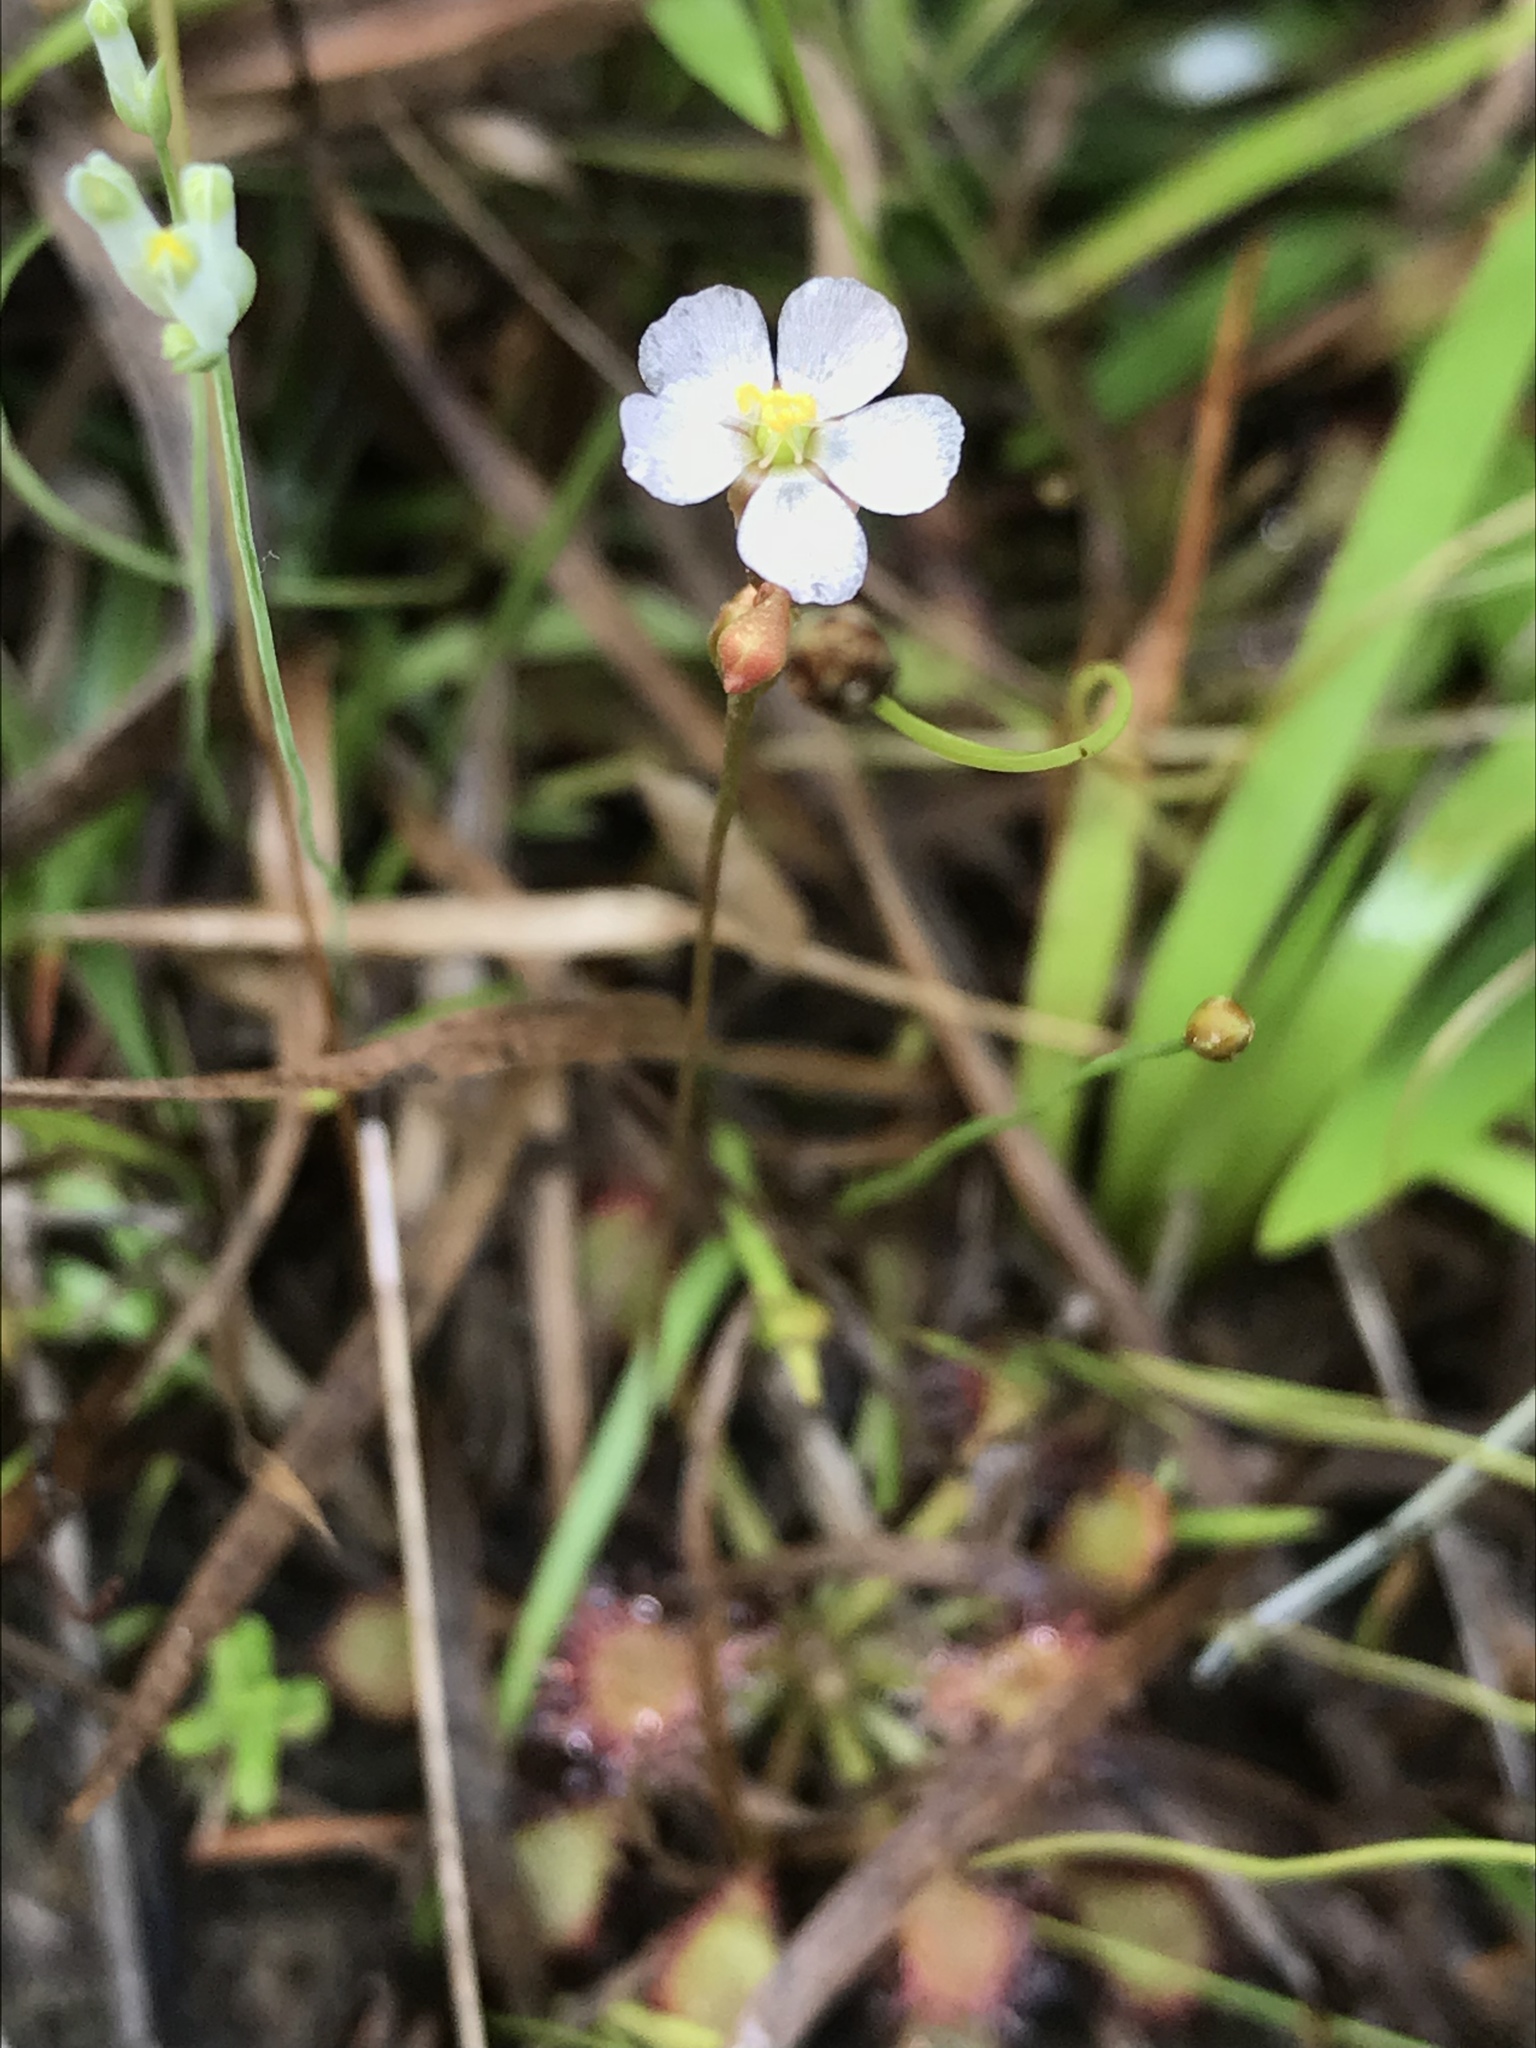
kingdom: Plantae
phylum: Tracheophyta
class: Magnoliopsida
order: Caryophyllales
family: Droseraceae
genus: Drosera
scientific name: Drosera capillaris
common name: Pink sundew
